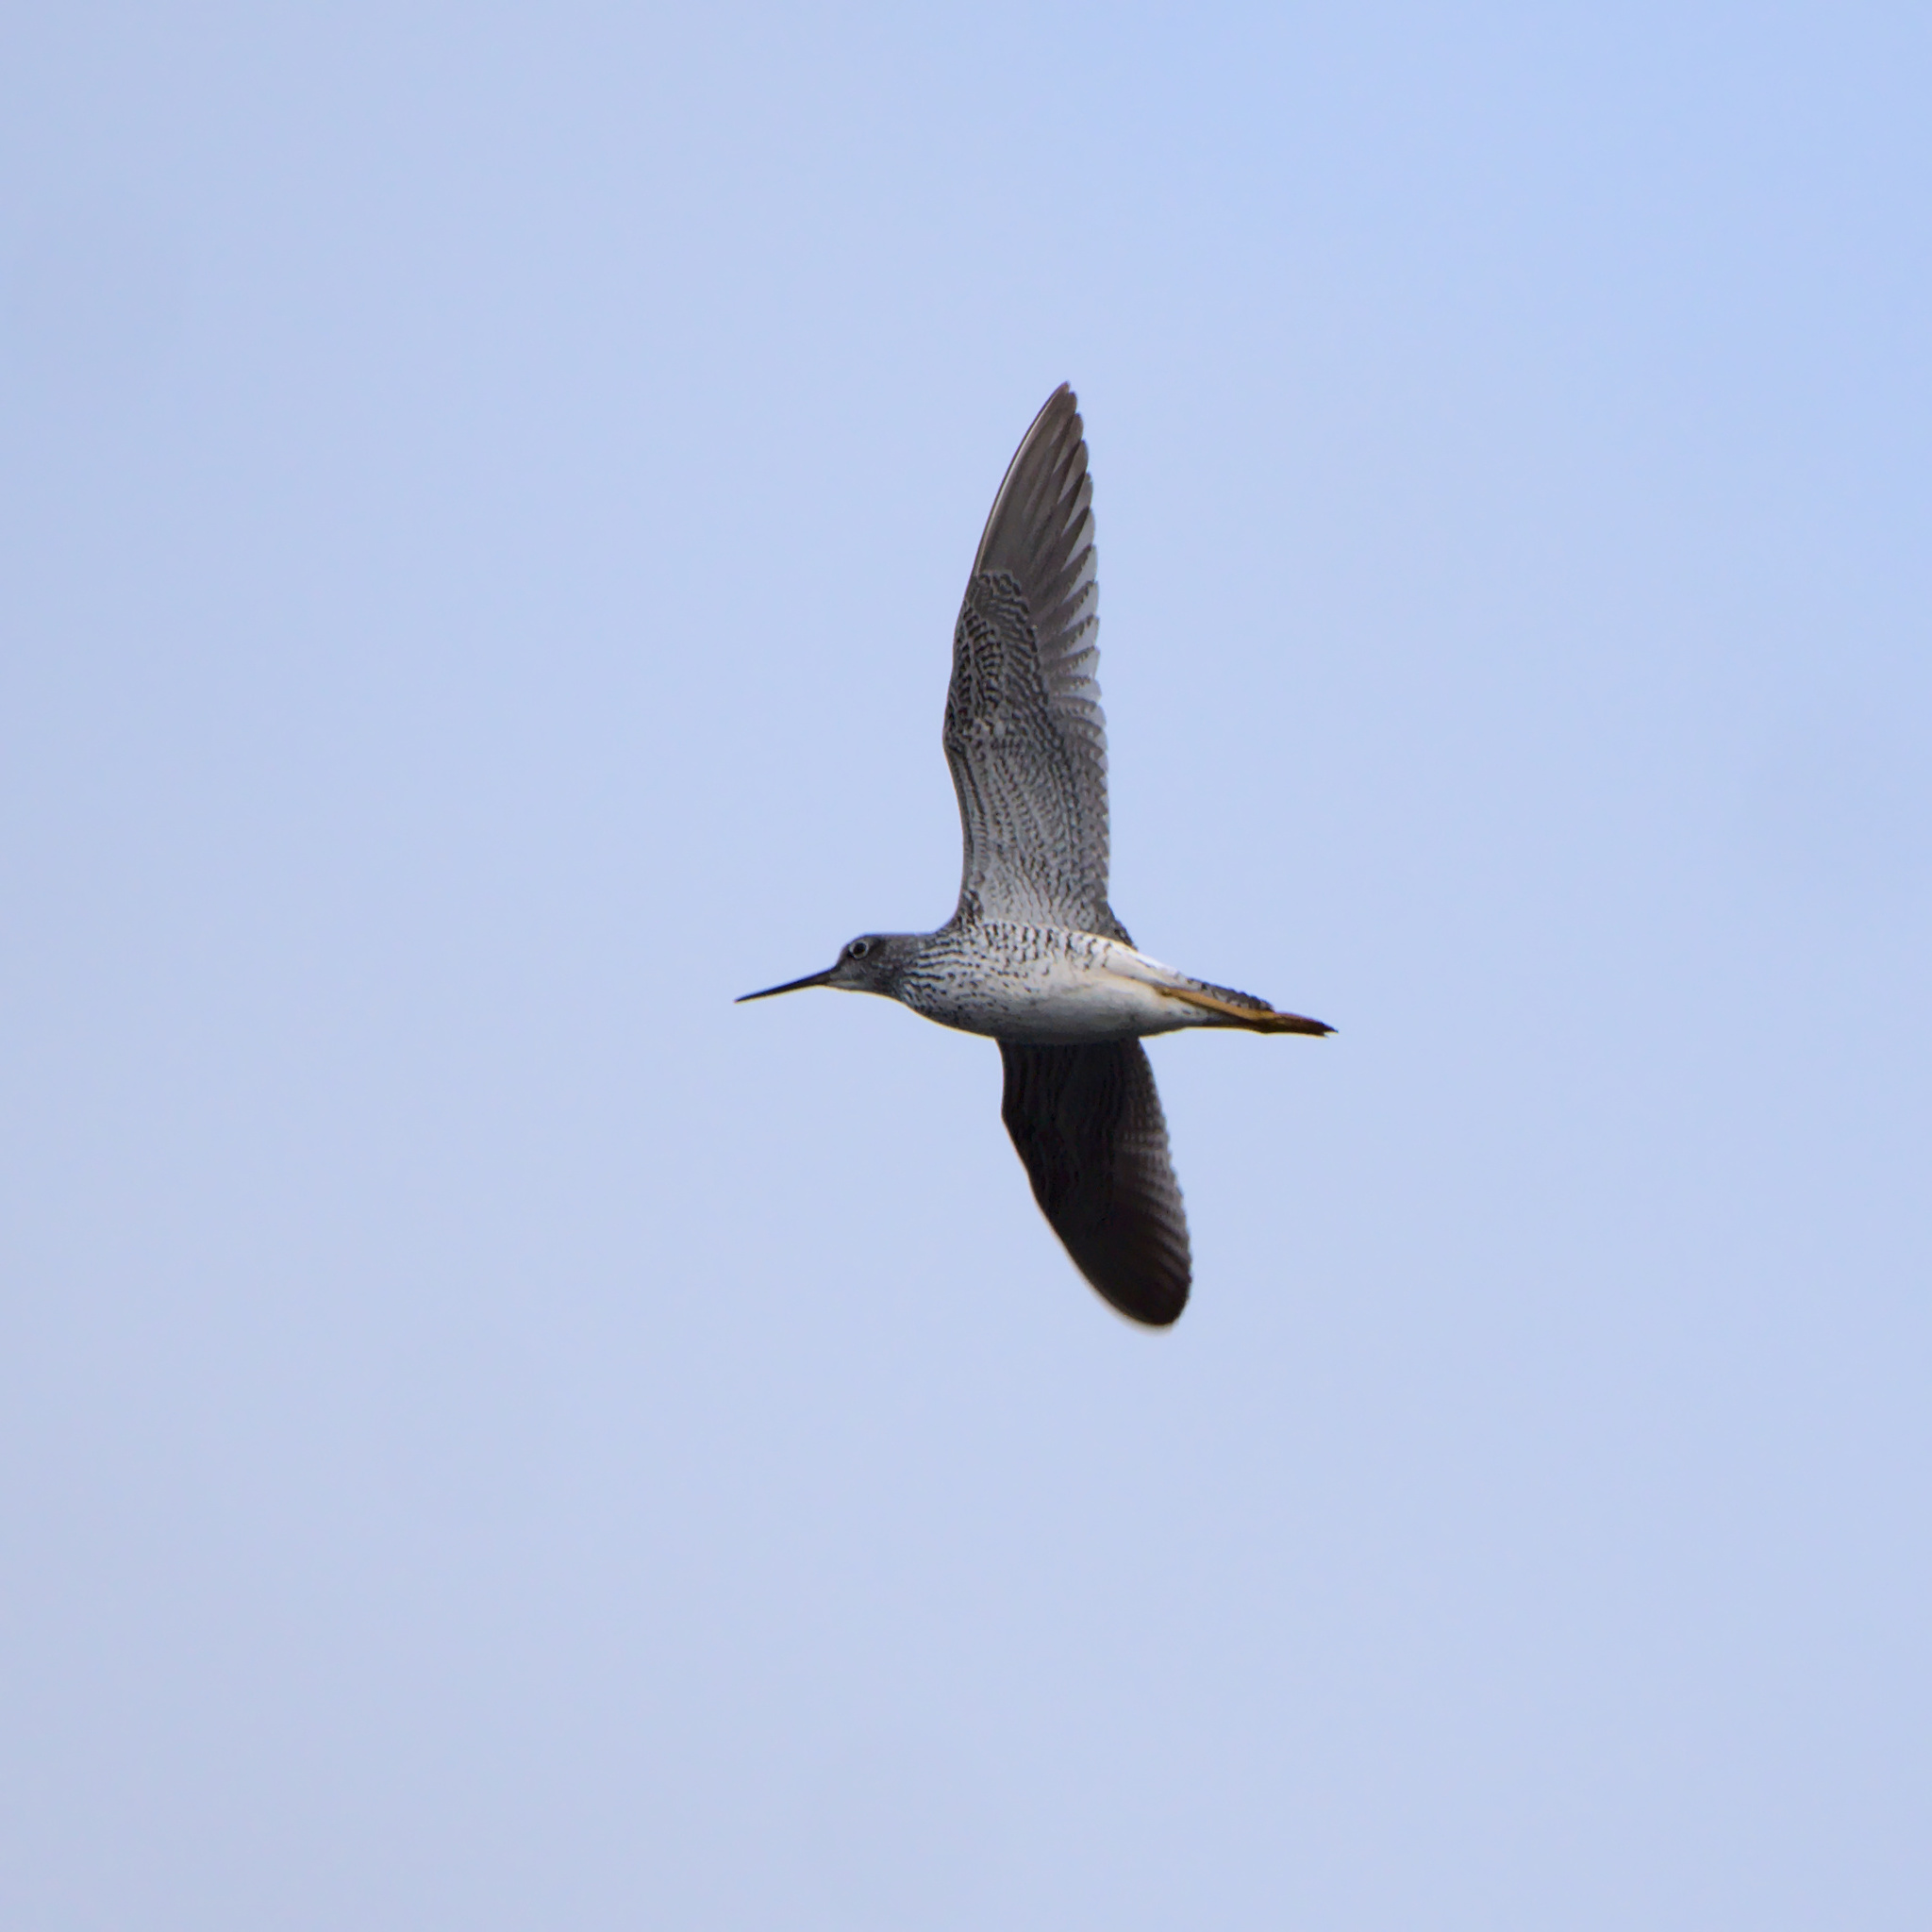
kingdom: Animalia
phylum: Chordata
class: Aves
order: Charadriiformes
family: Scolopacidae
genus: Tringa
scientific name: Tringa melanoleuca
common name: Greater yellowlegs
